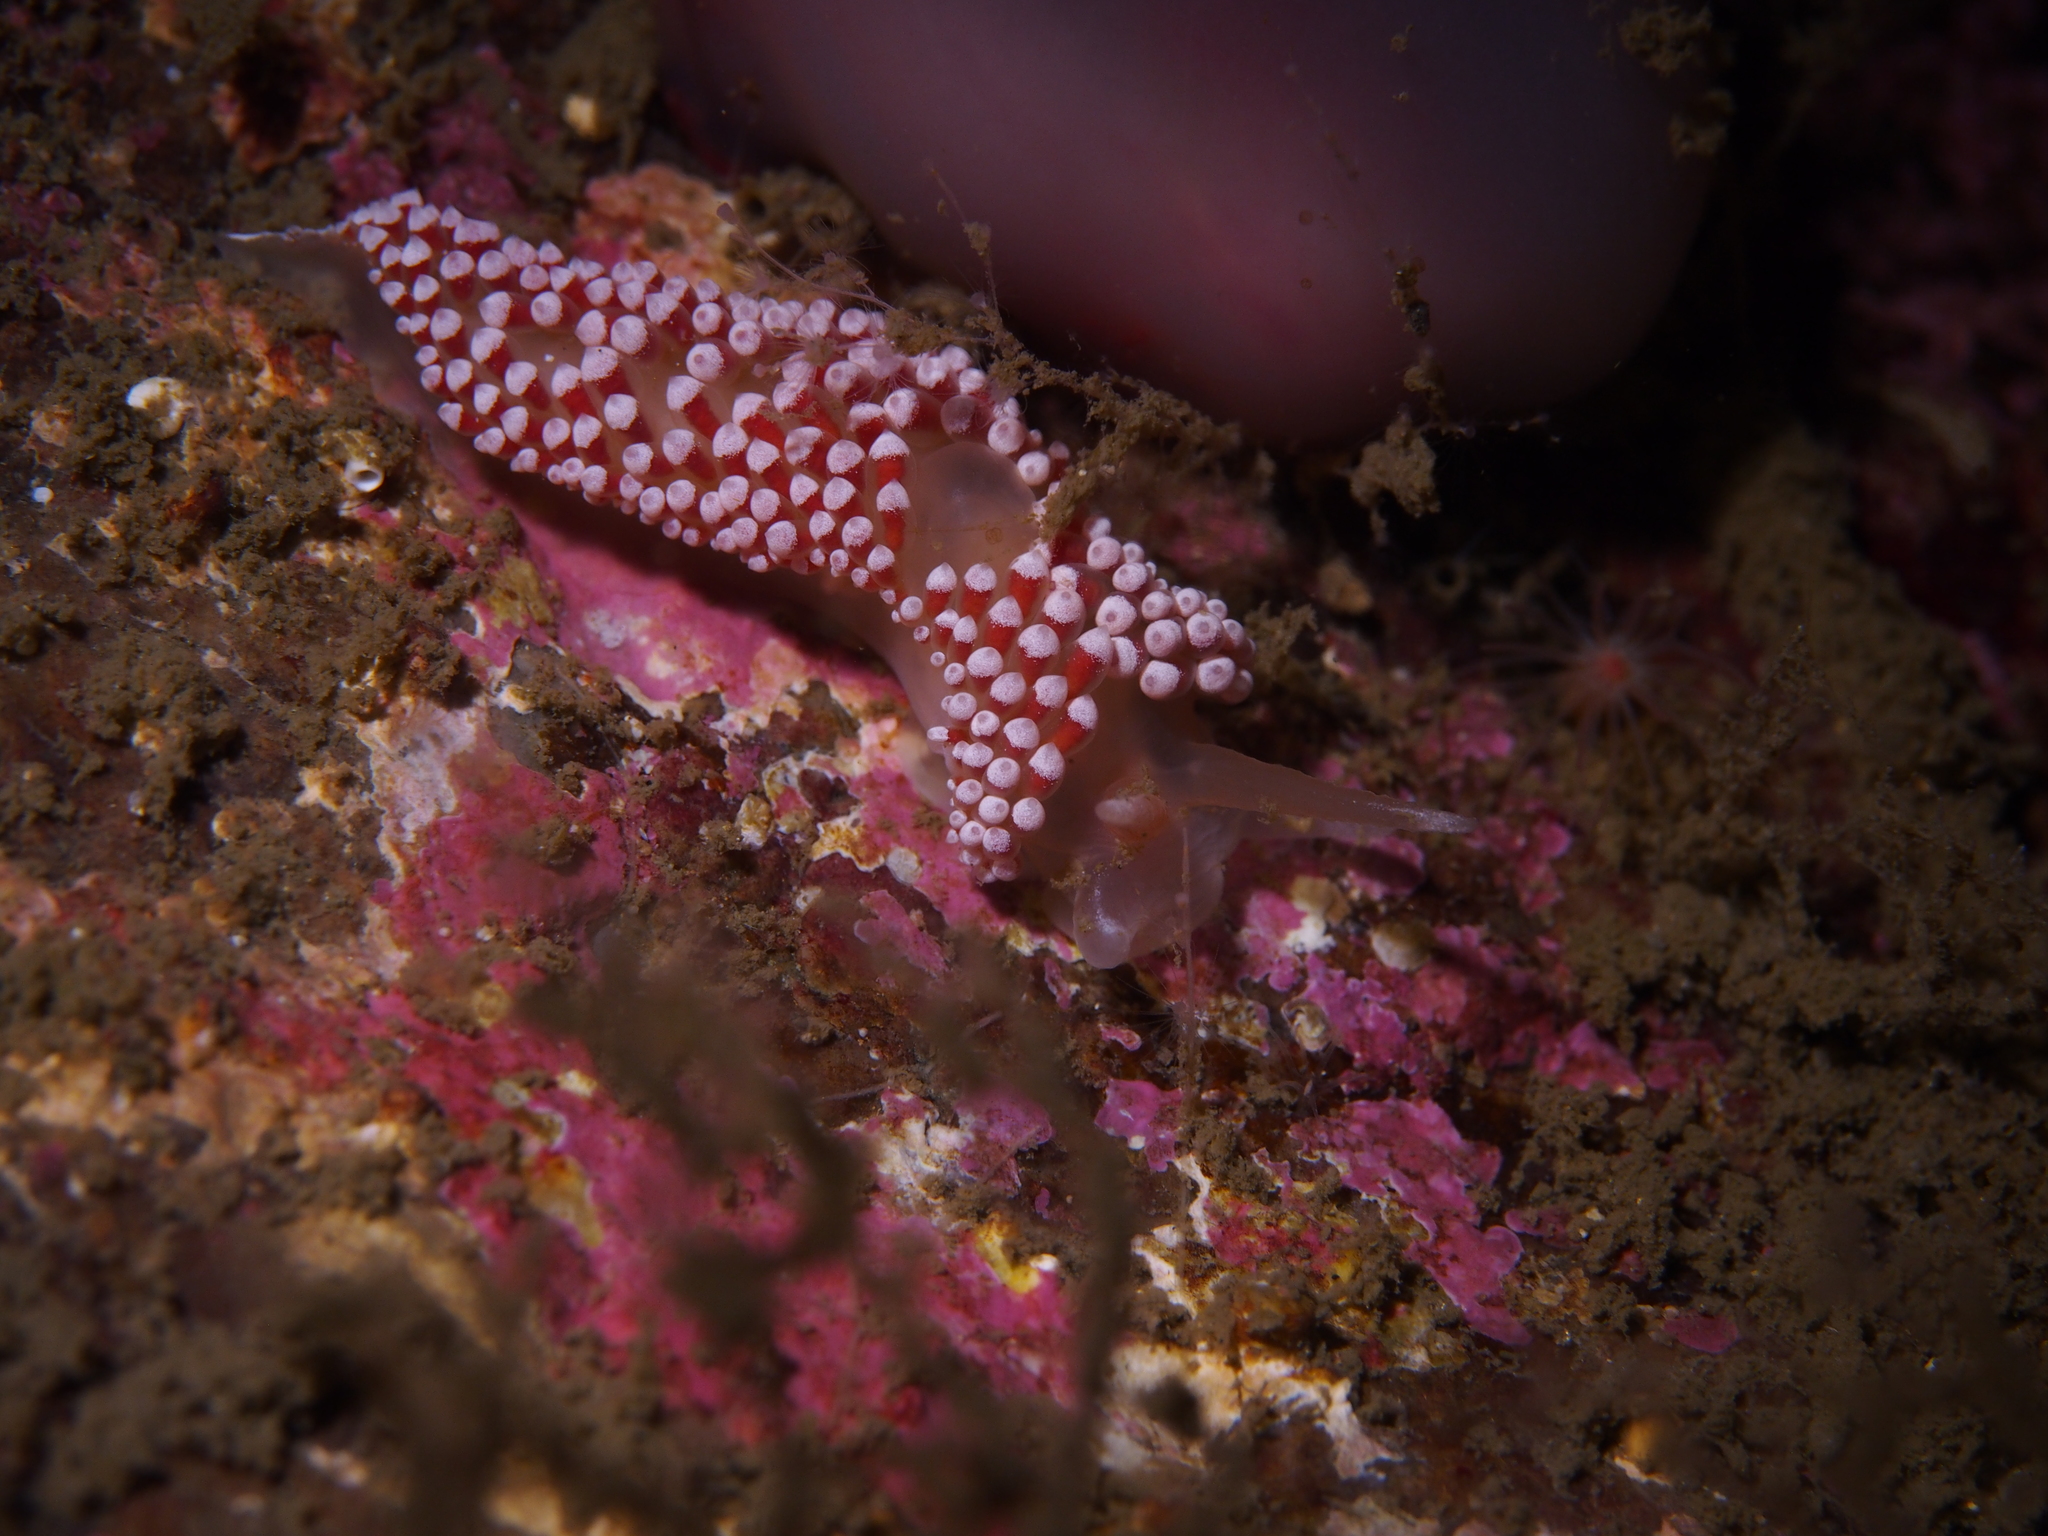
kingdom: Animalia
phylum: Mollusca
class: Gastropoda
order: Nudibranchia
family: Coryphellidae
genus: Coryphella
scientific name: Coryphella verrucosa
